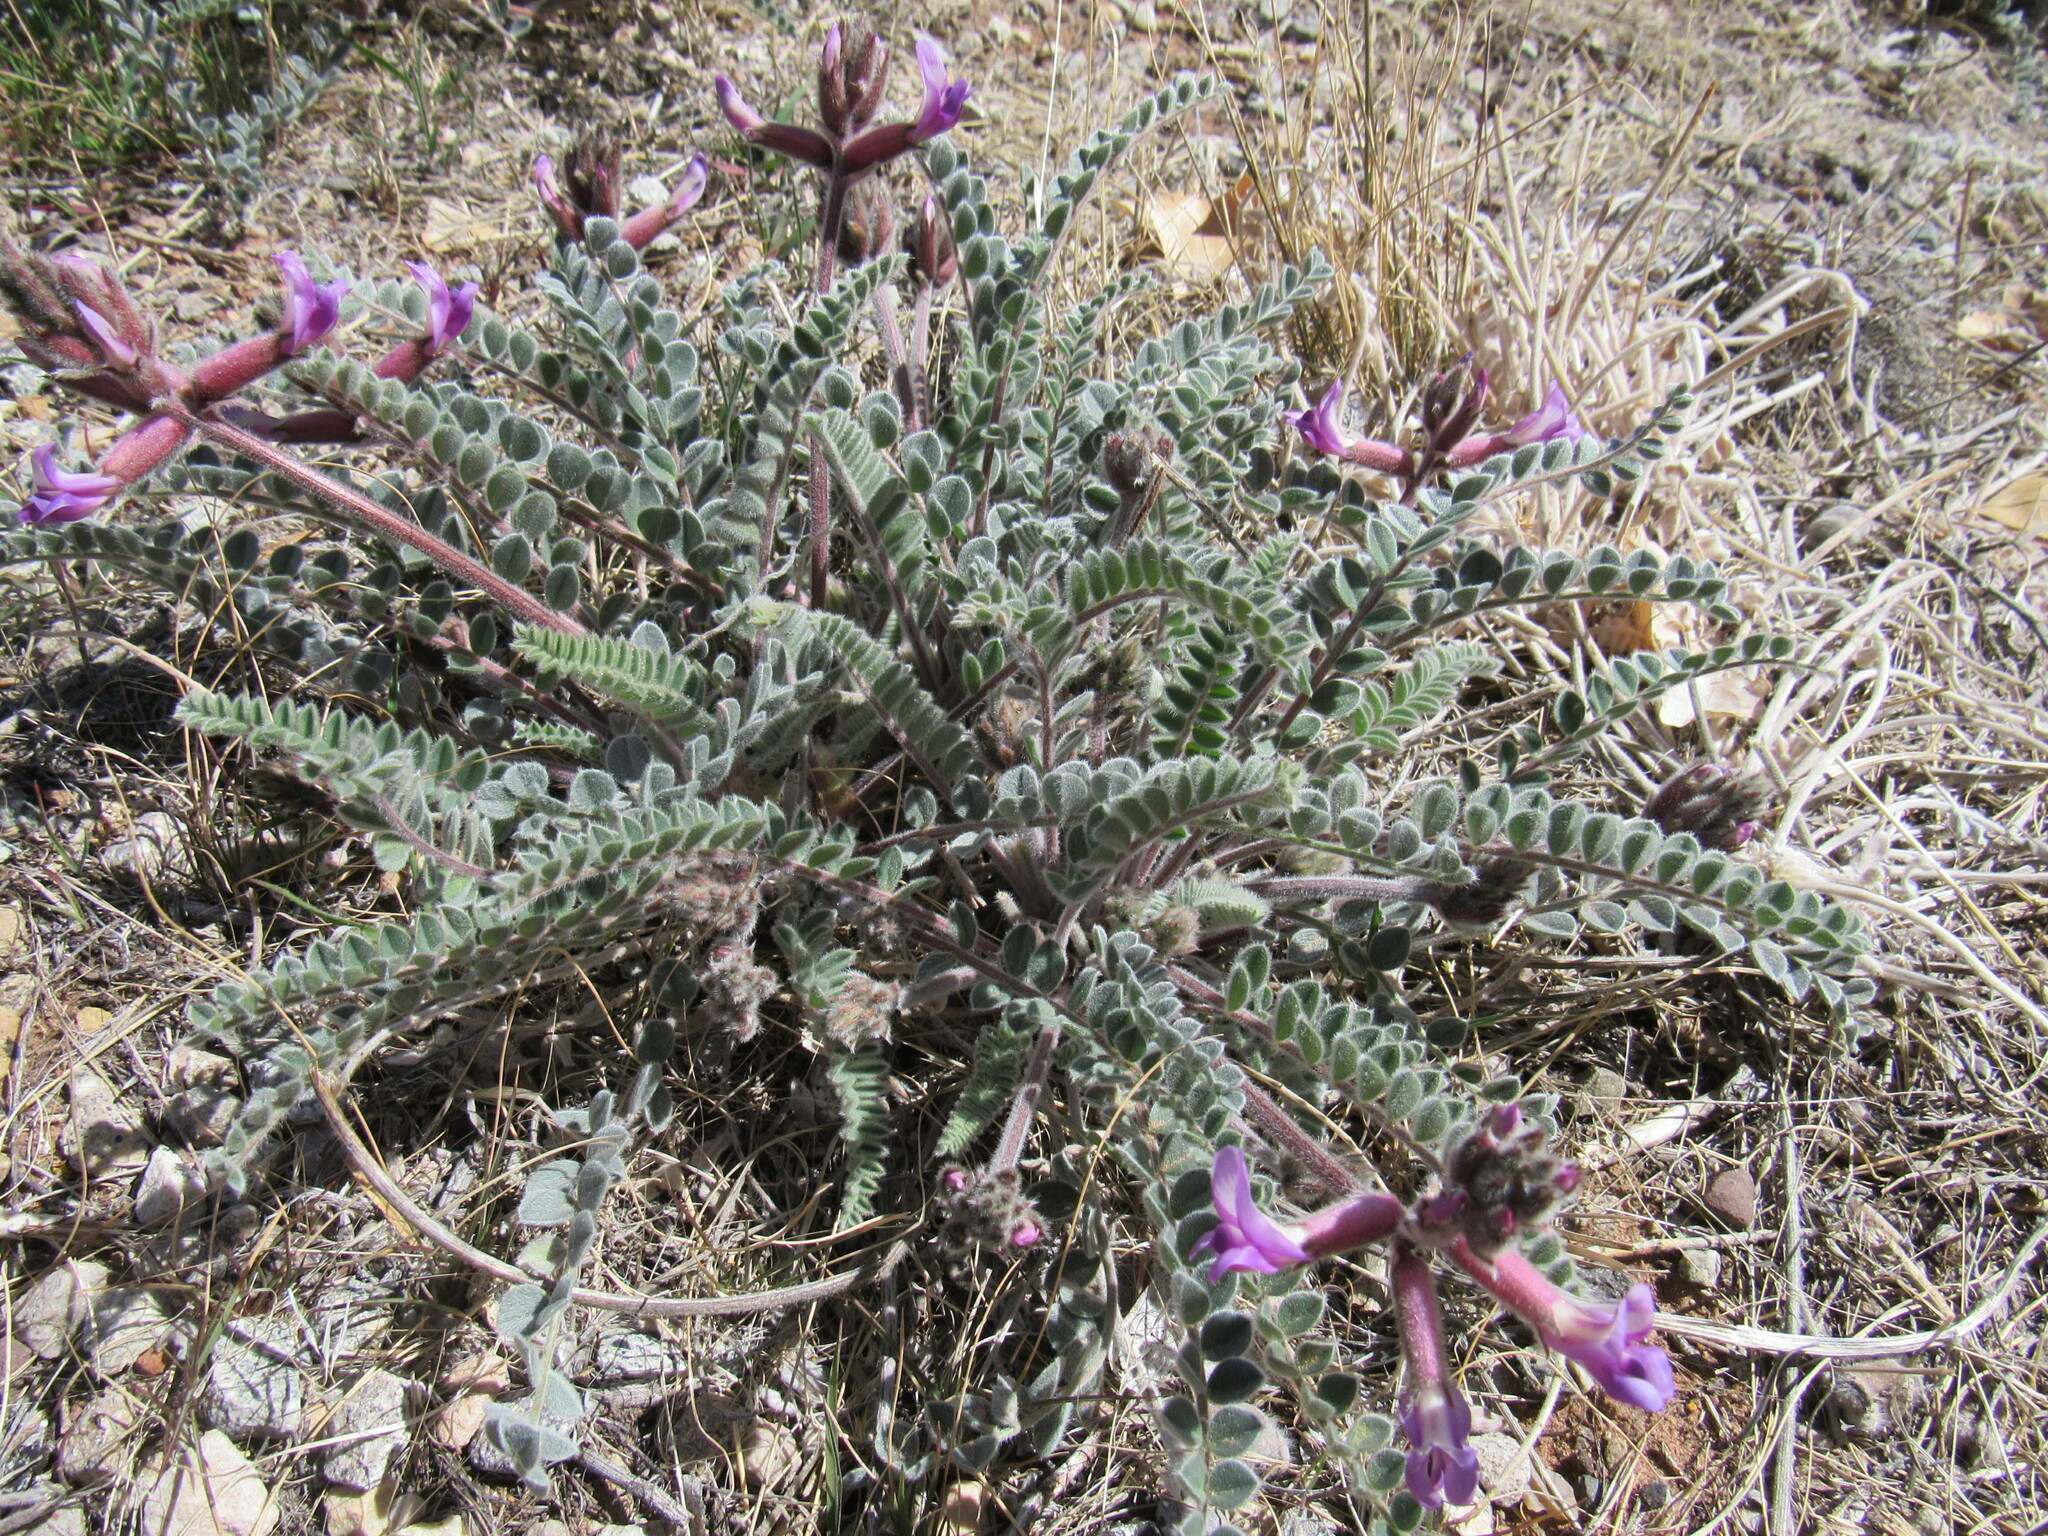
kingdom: Plantae
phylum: Tracheophyta
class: Magnoliopsida
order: Fabales
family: Fabaceae
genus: Astragalus
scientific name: Astragalus mollissimus
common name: Woolly locoweed
